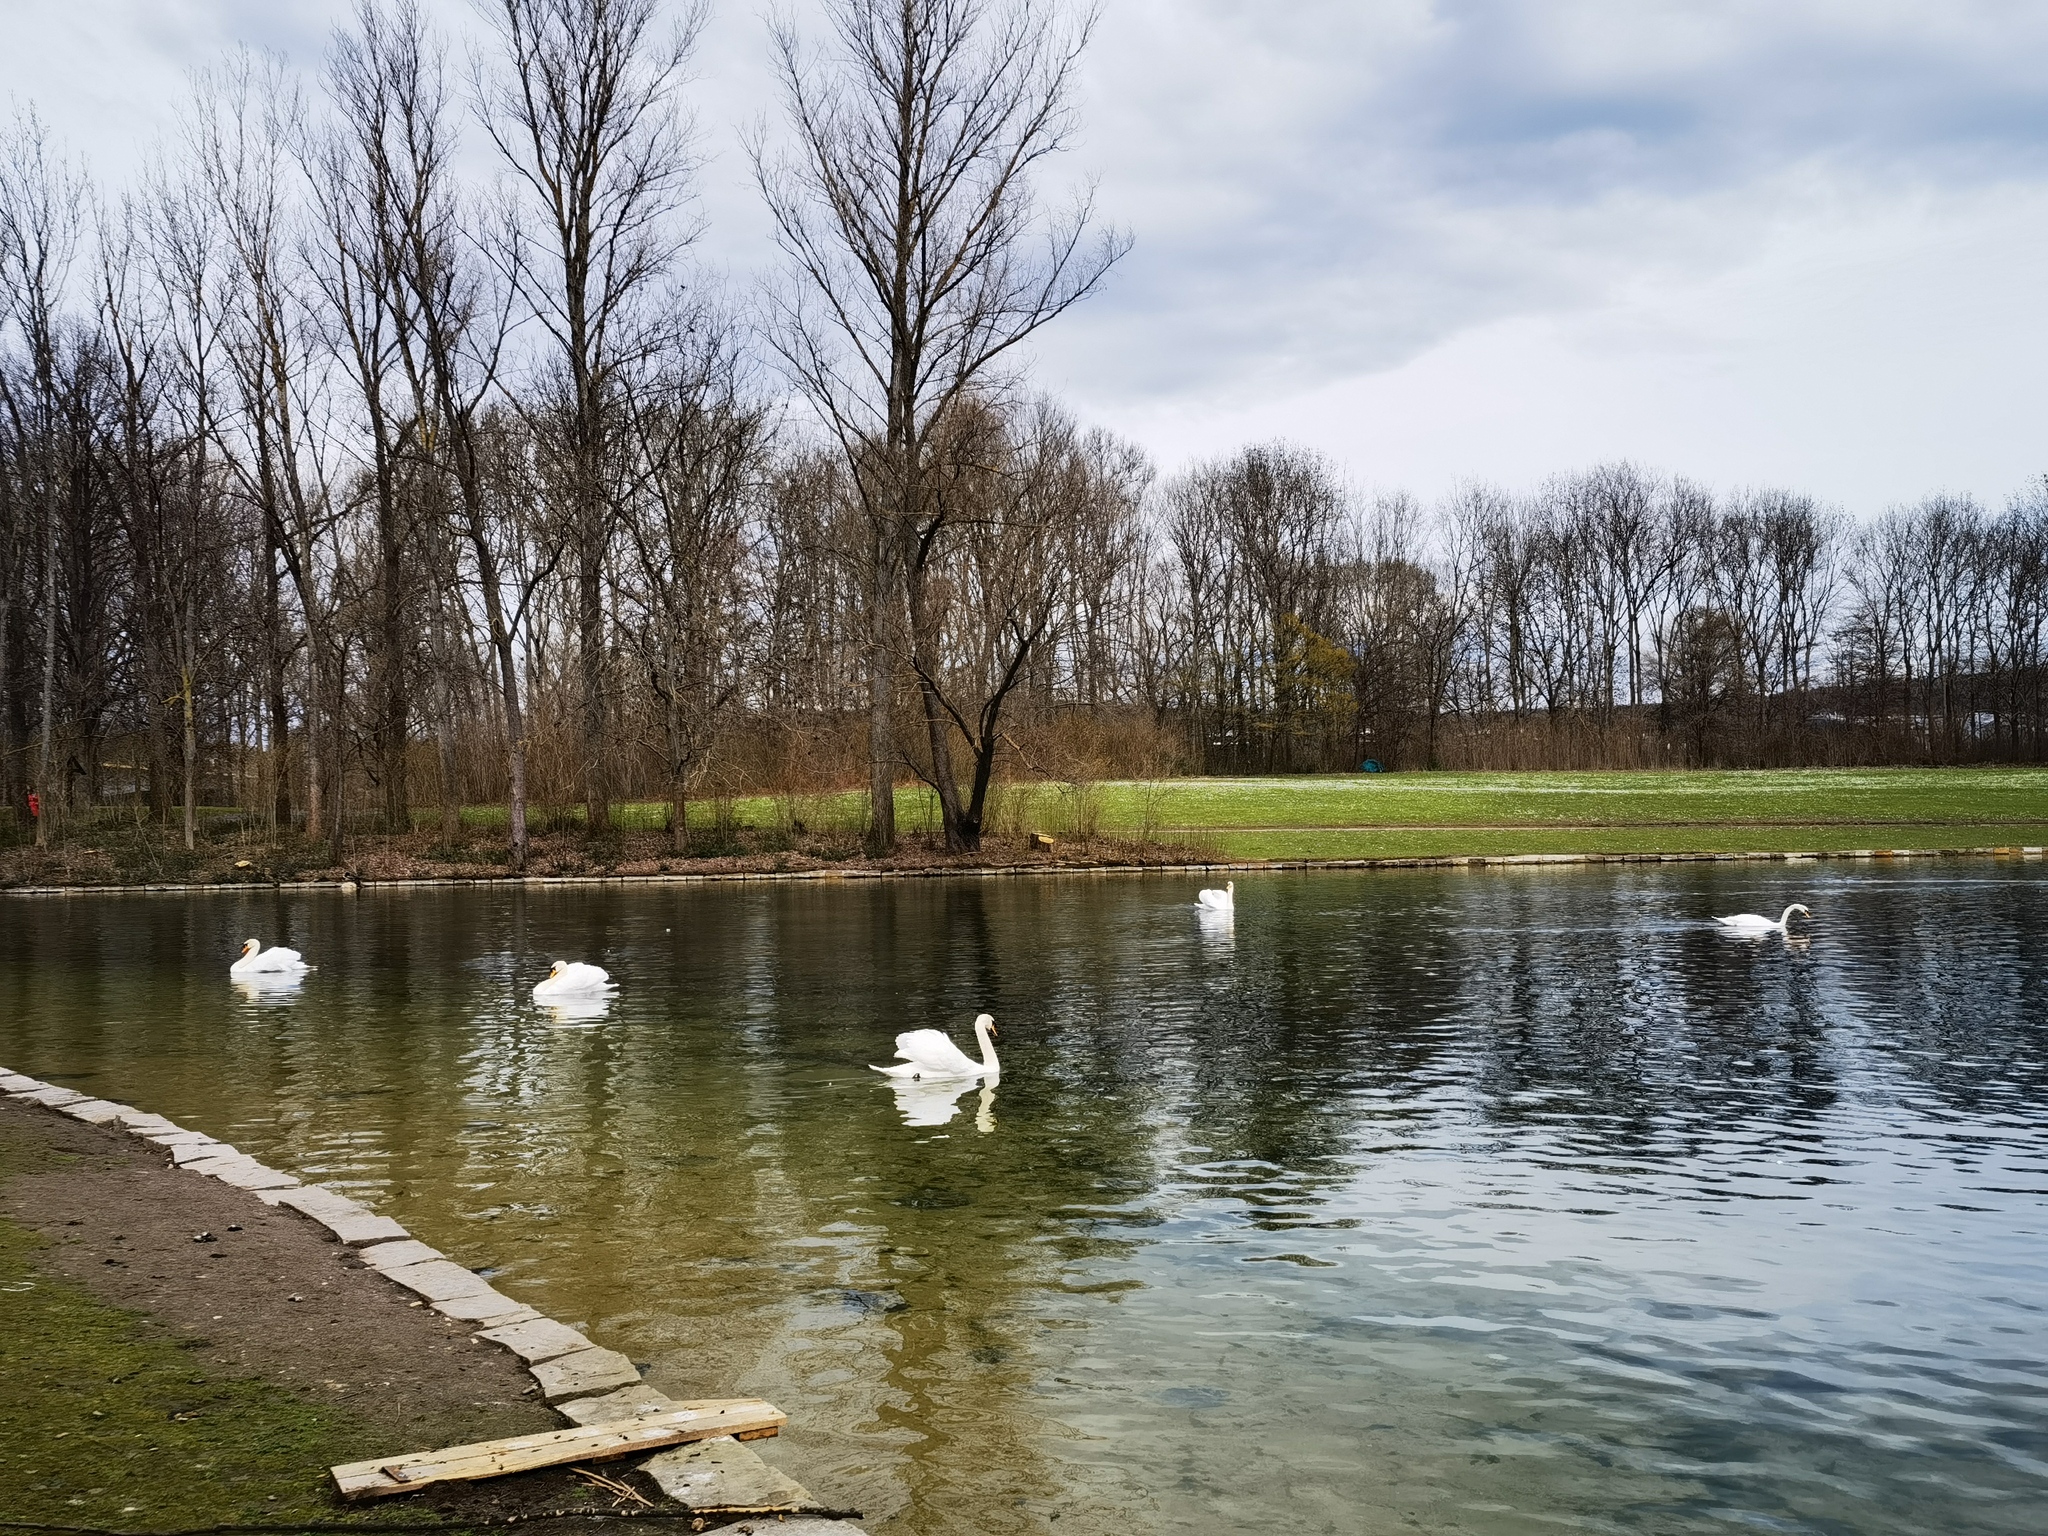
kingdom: Animalia
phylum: Chordata
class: Aves
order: Anseriformes
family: Anatidae
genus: Cygnus
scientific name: Cygnus olor
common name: Mute swan
